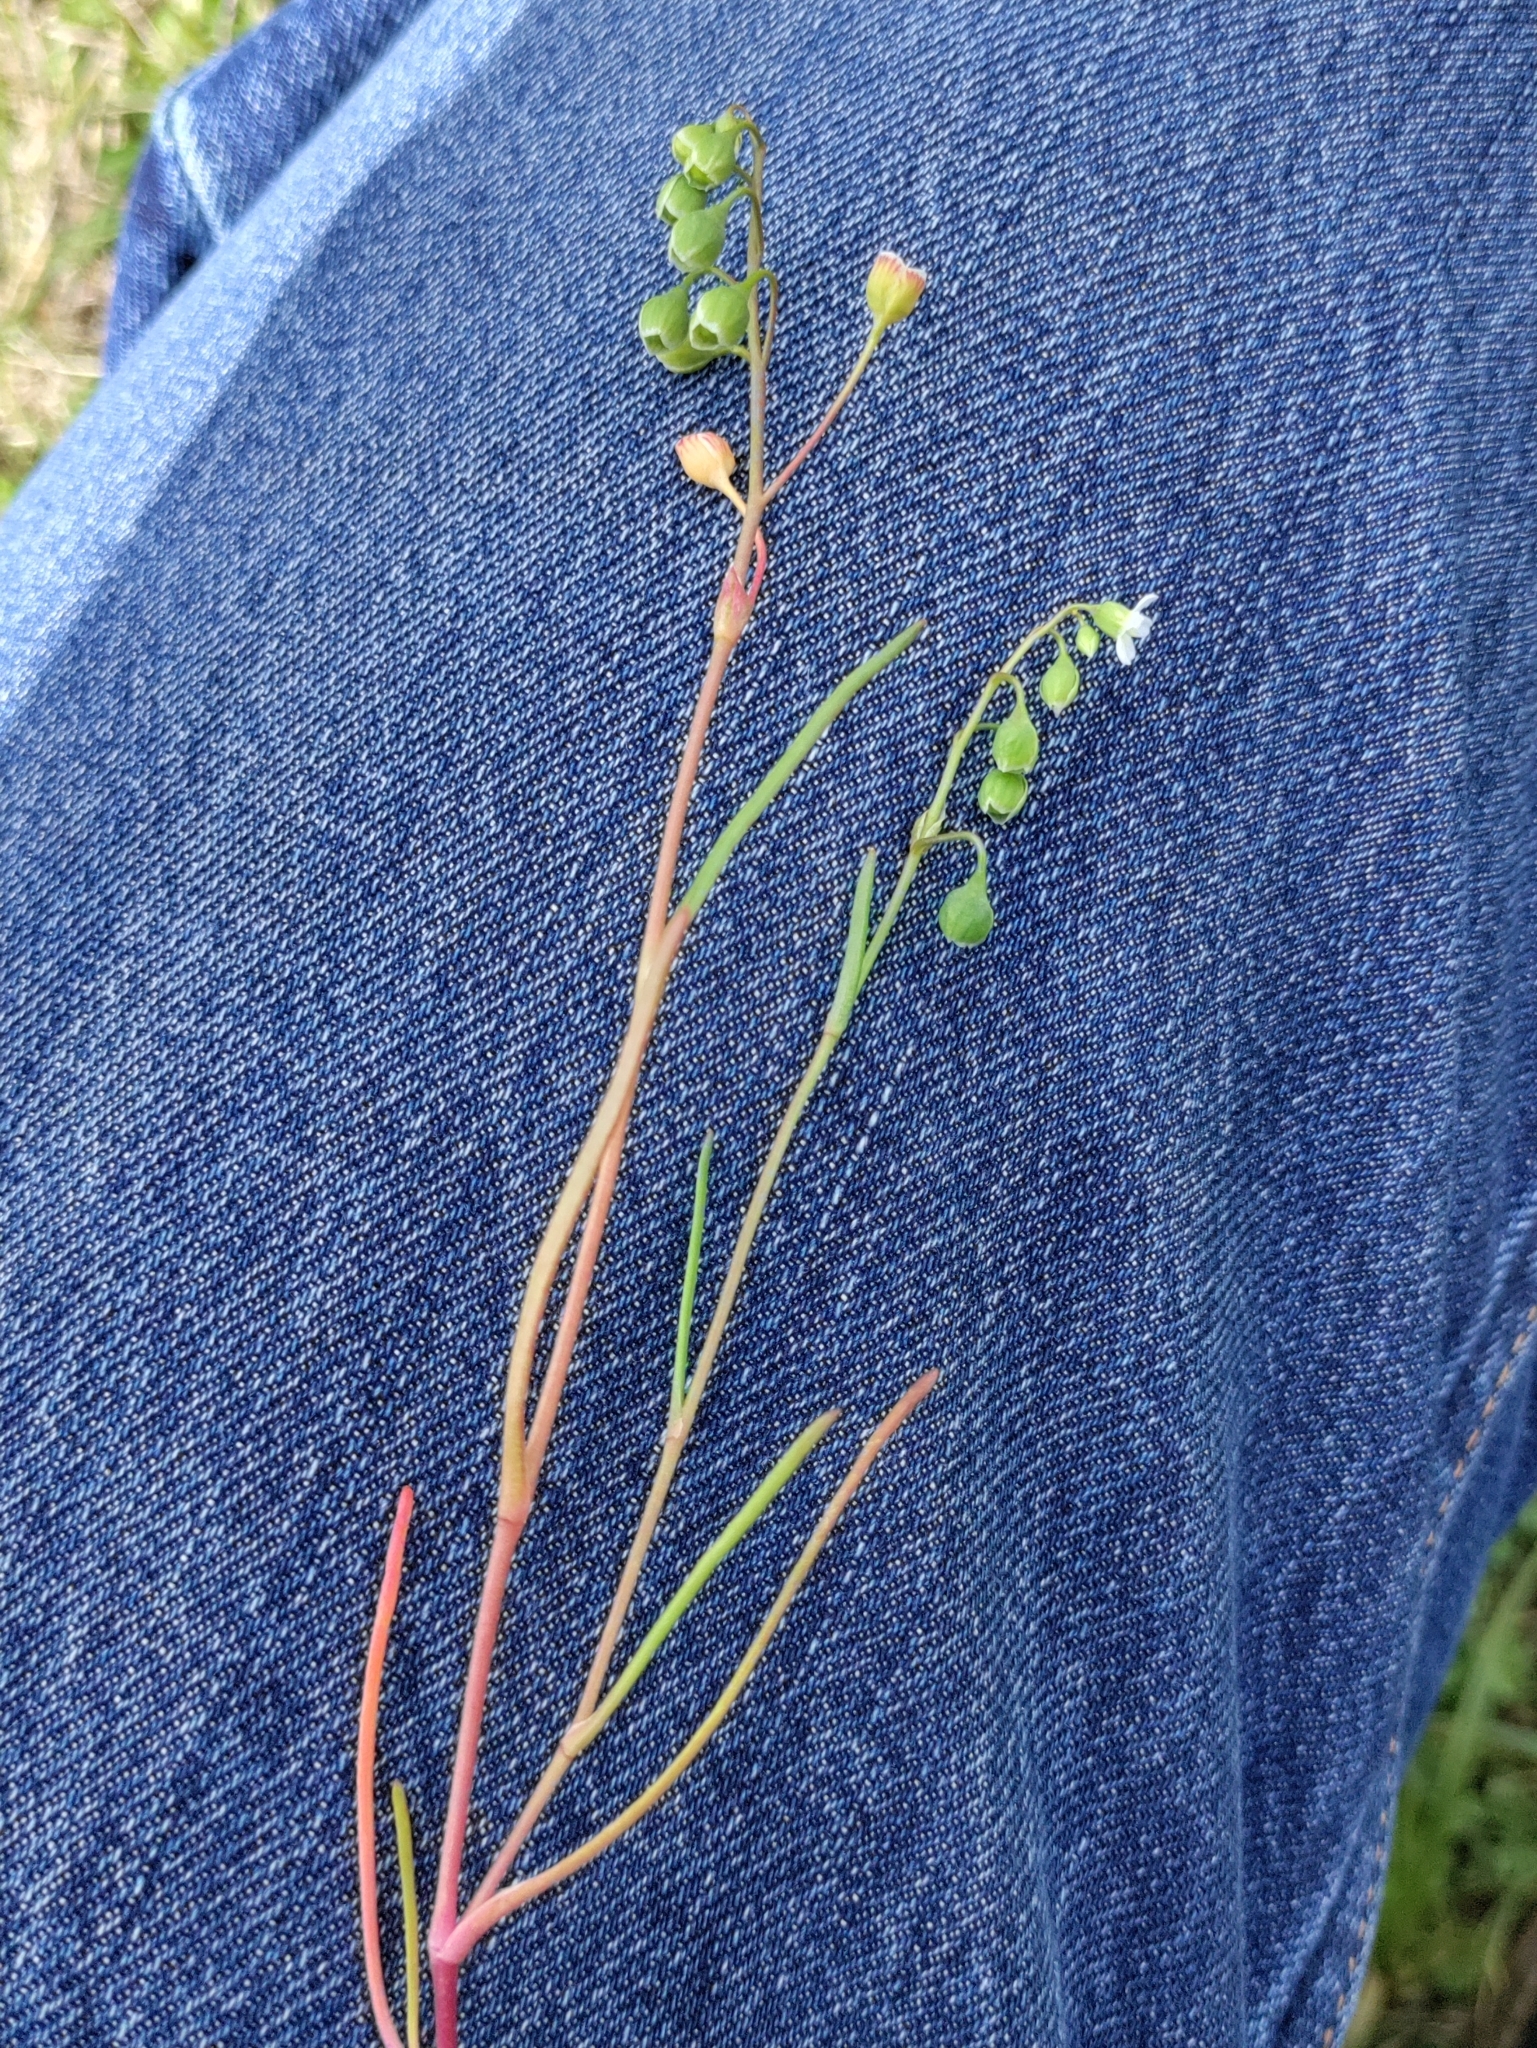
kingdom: Plantae
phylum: Tracheophyta
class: Magnoliopsida
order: Caryophyllales
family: Montiaceae
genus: Montia
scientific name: Montia linearis
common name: Narrow-leaf montia
